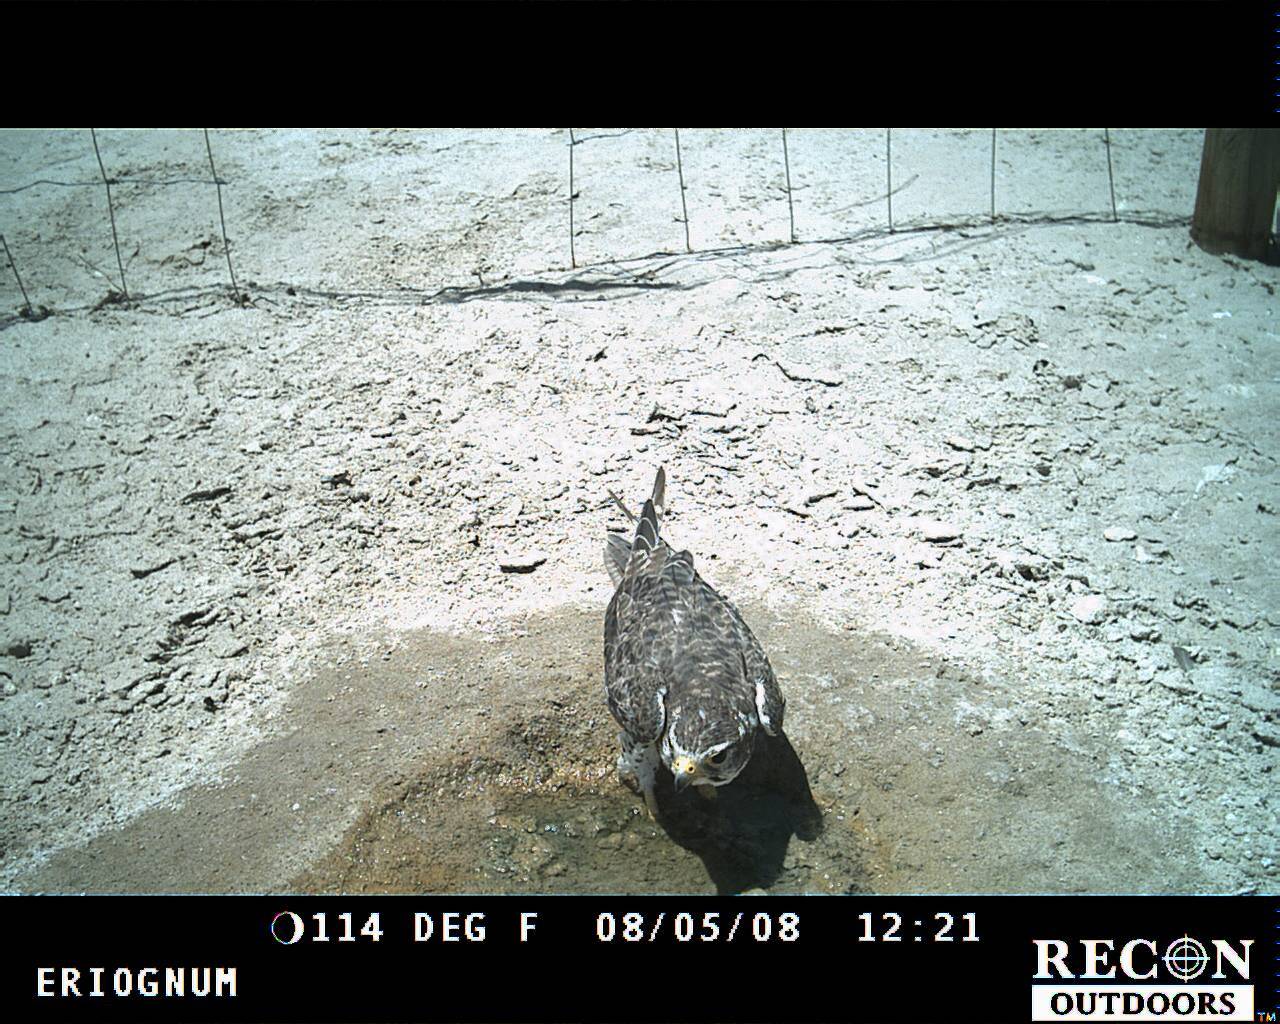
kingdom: Animalia
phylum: Chordata
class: Aves
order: Falconiformes
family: Falconidae
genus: Falco
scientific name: Falco mexicanus
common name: Prairie falcon
